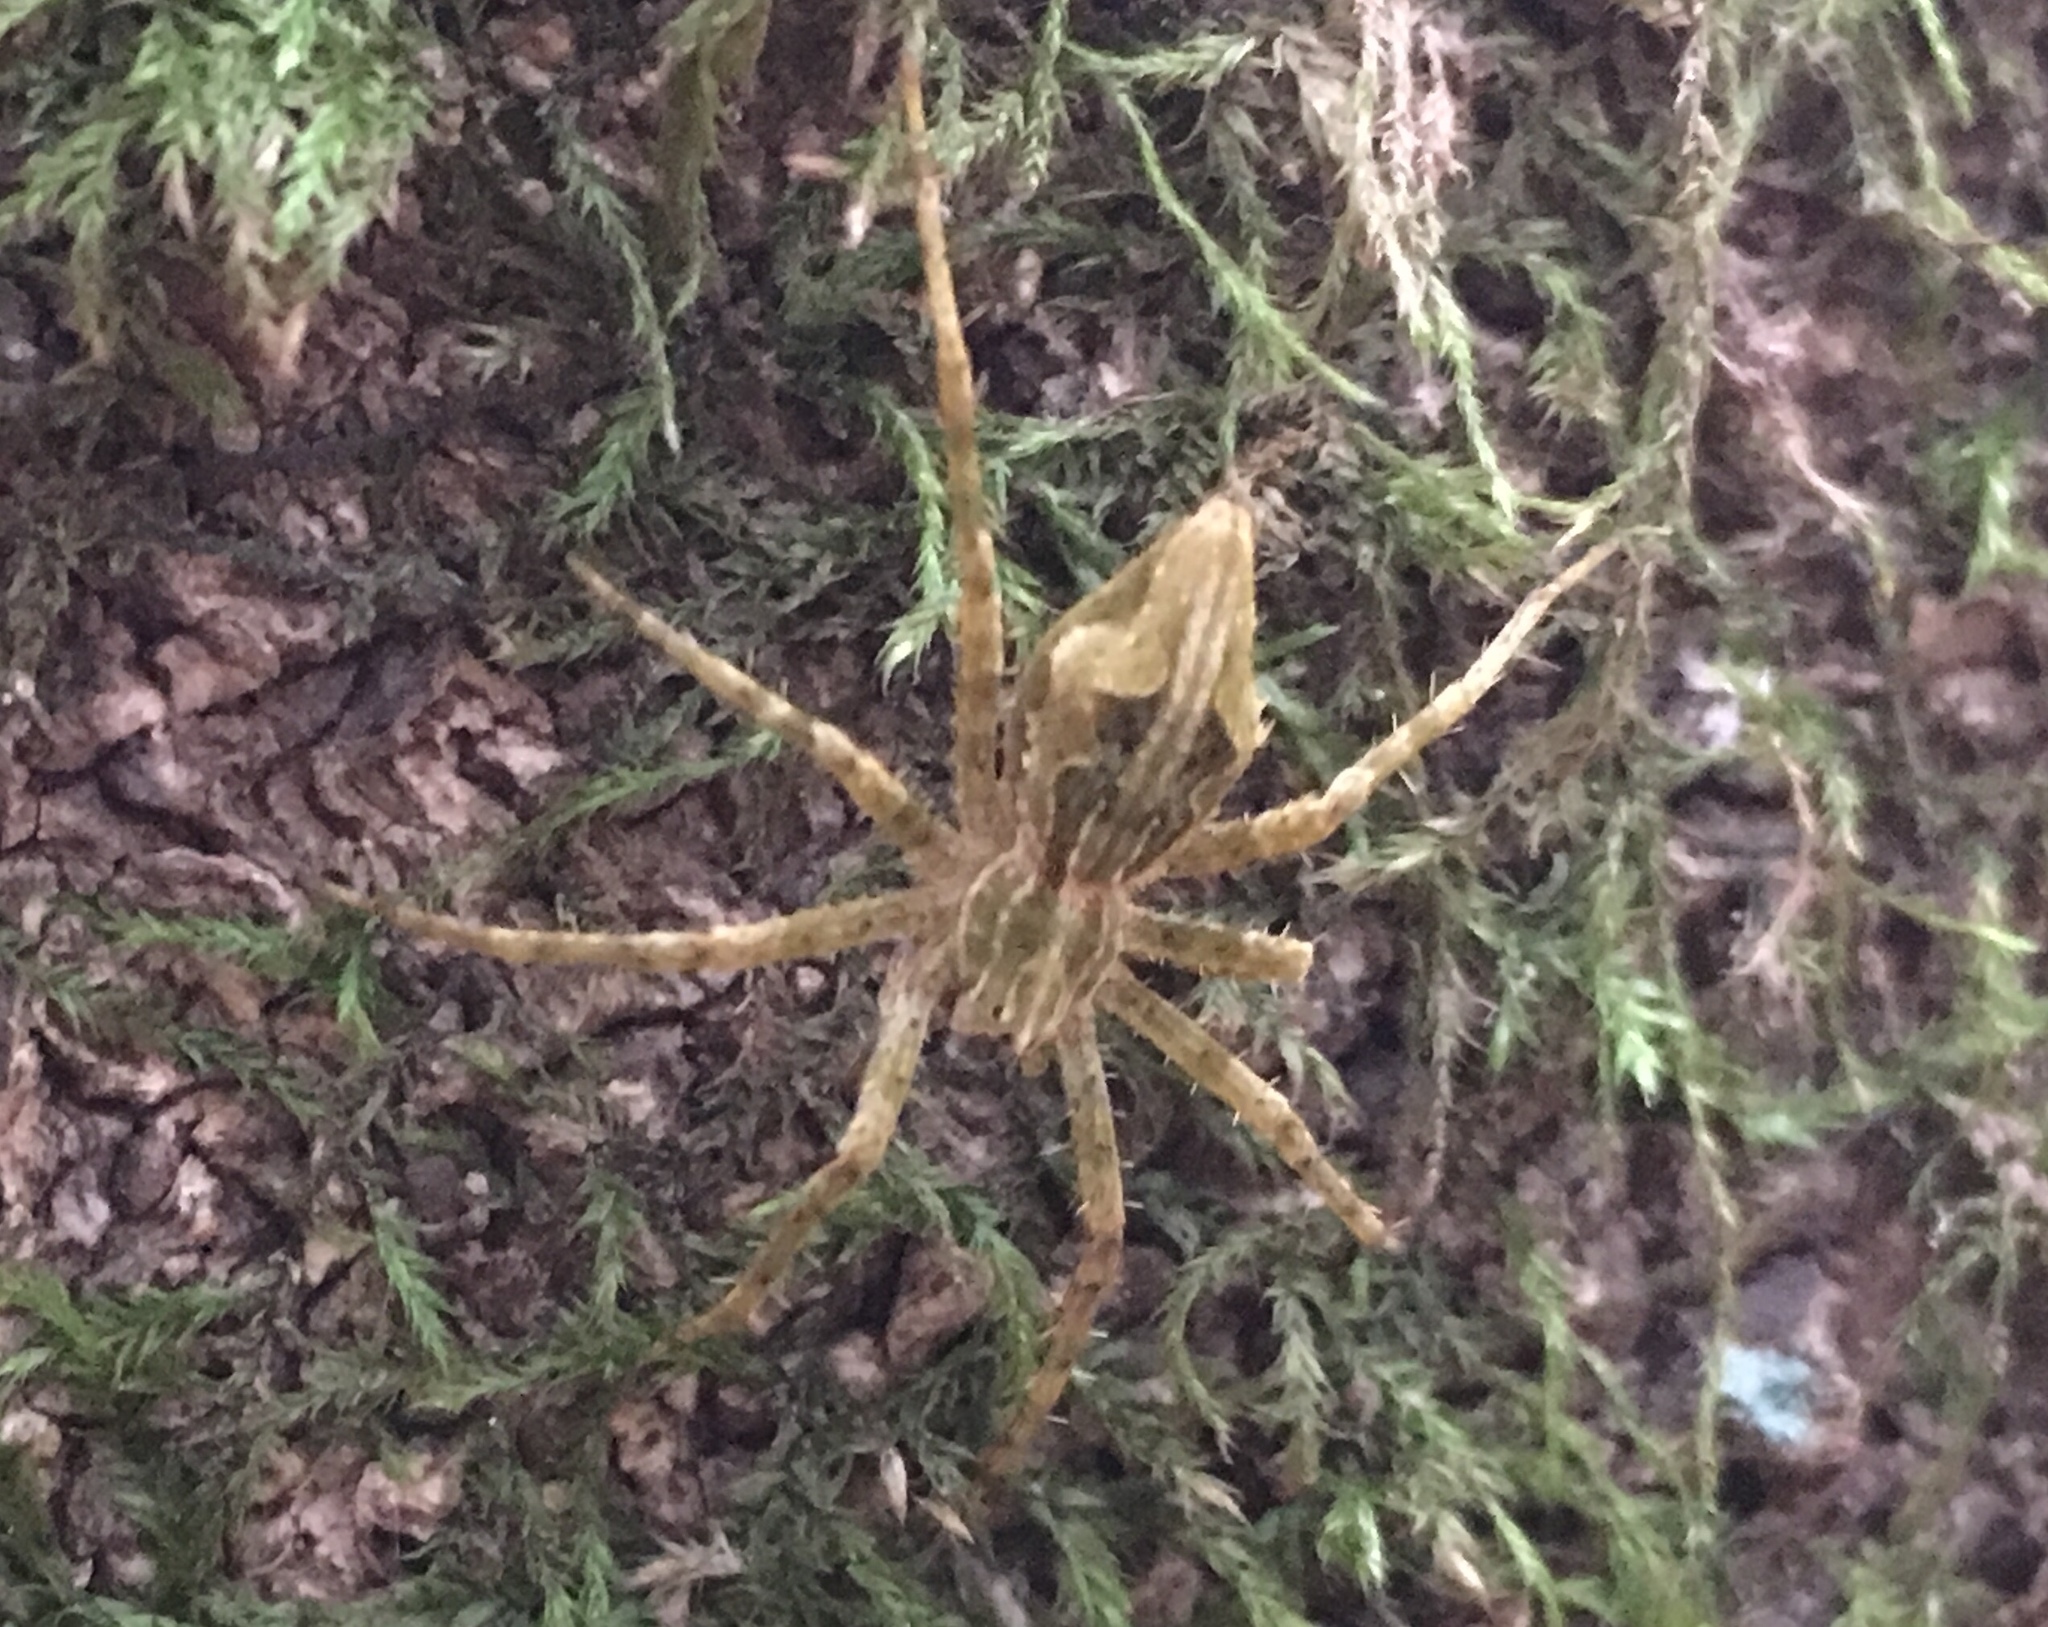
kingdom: Animalia
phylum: Arthropoda
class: Arachnida
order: Araneae
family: Pisauridae
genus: Cladycnis
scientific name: Cladycnis insignis
